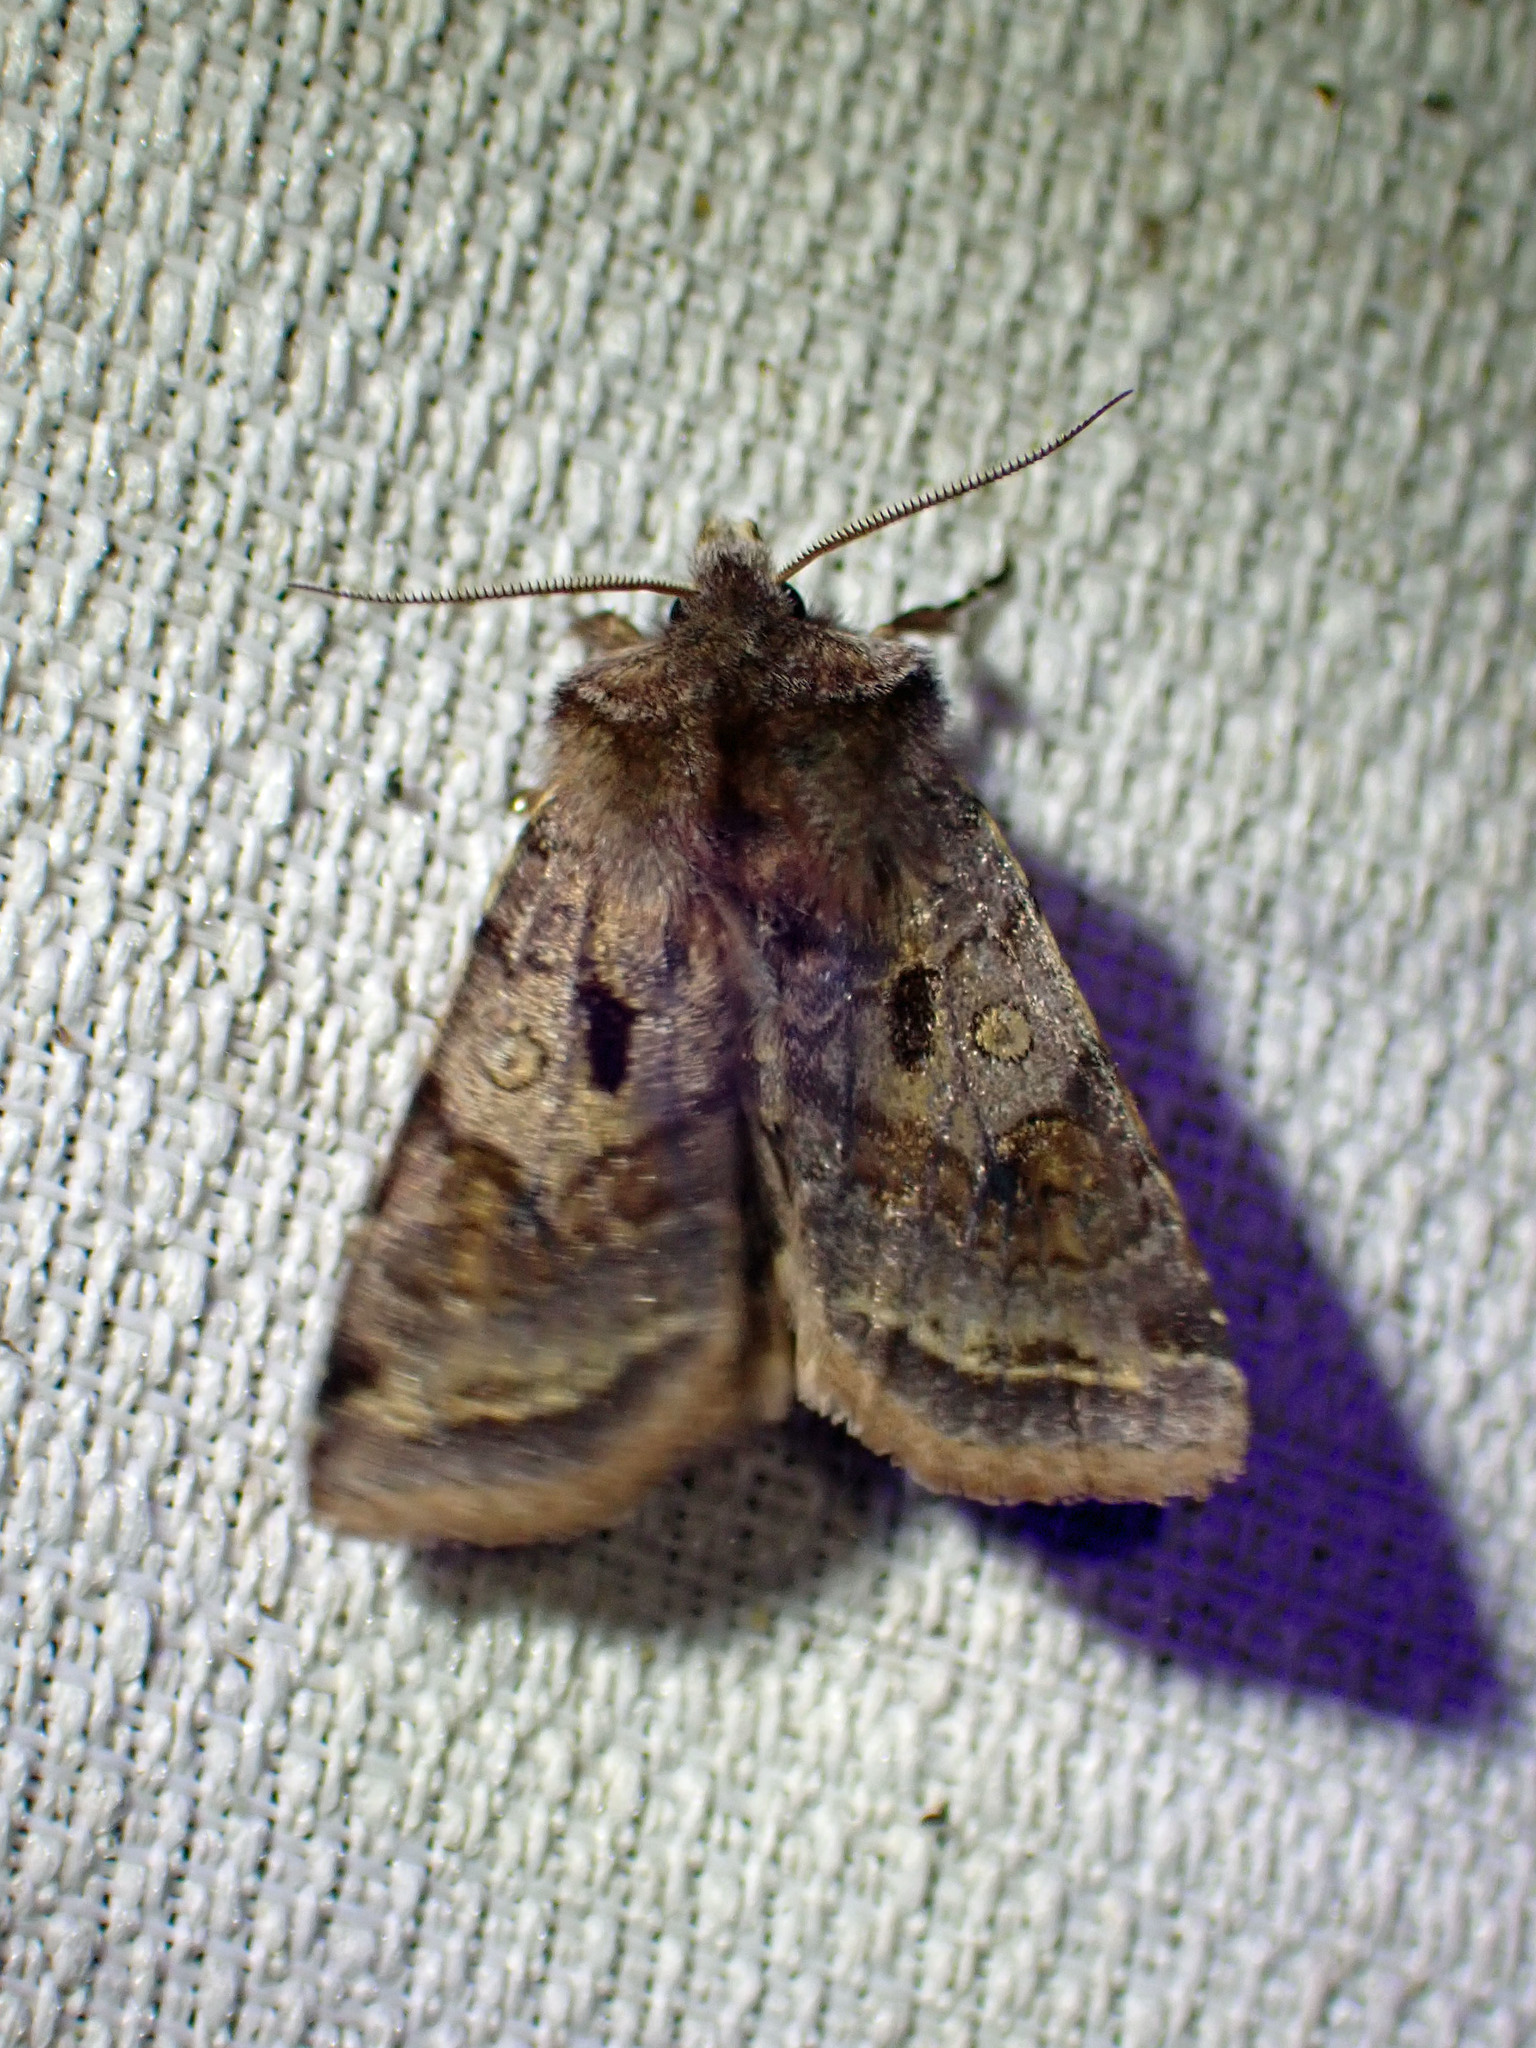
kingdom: Animalia
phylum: Arthropoda
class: Insecta
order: Lepidoptera
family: Noctuidae
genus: Cerastis
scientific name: Cerastis salicarum
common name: Willow dart
